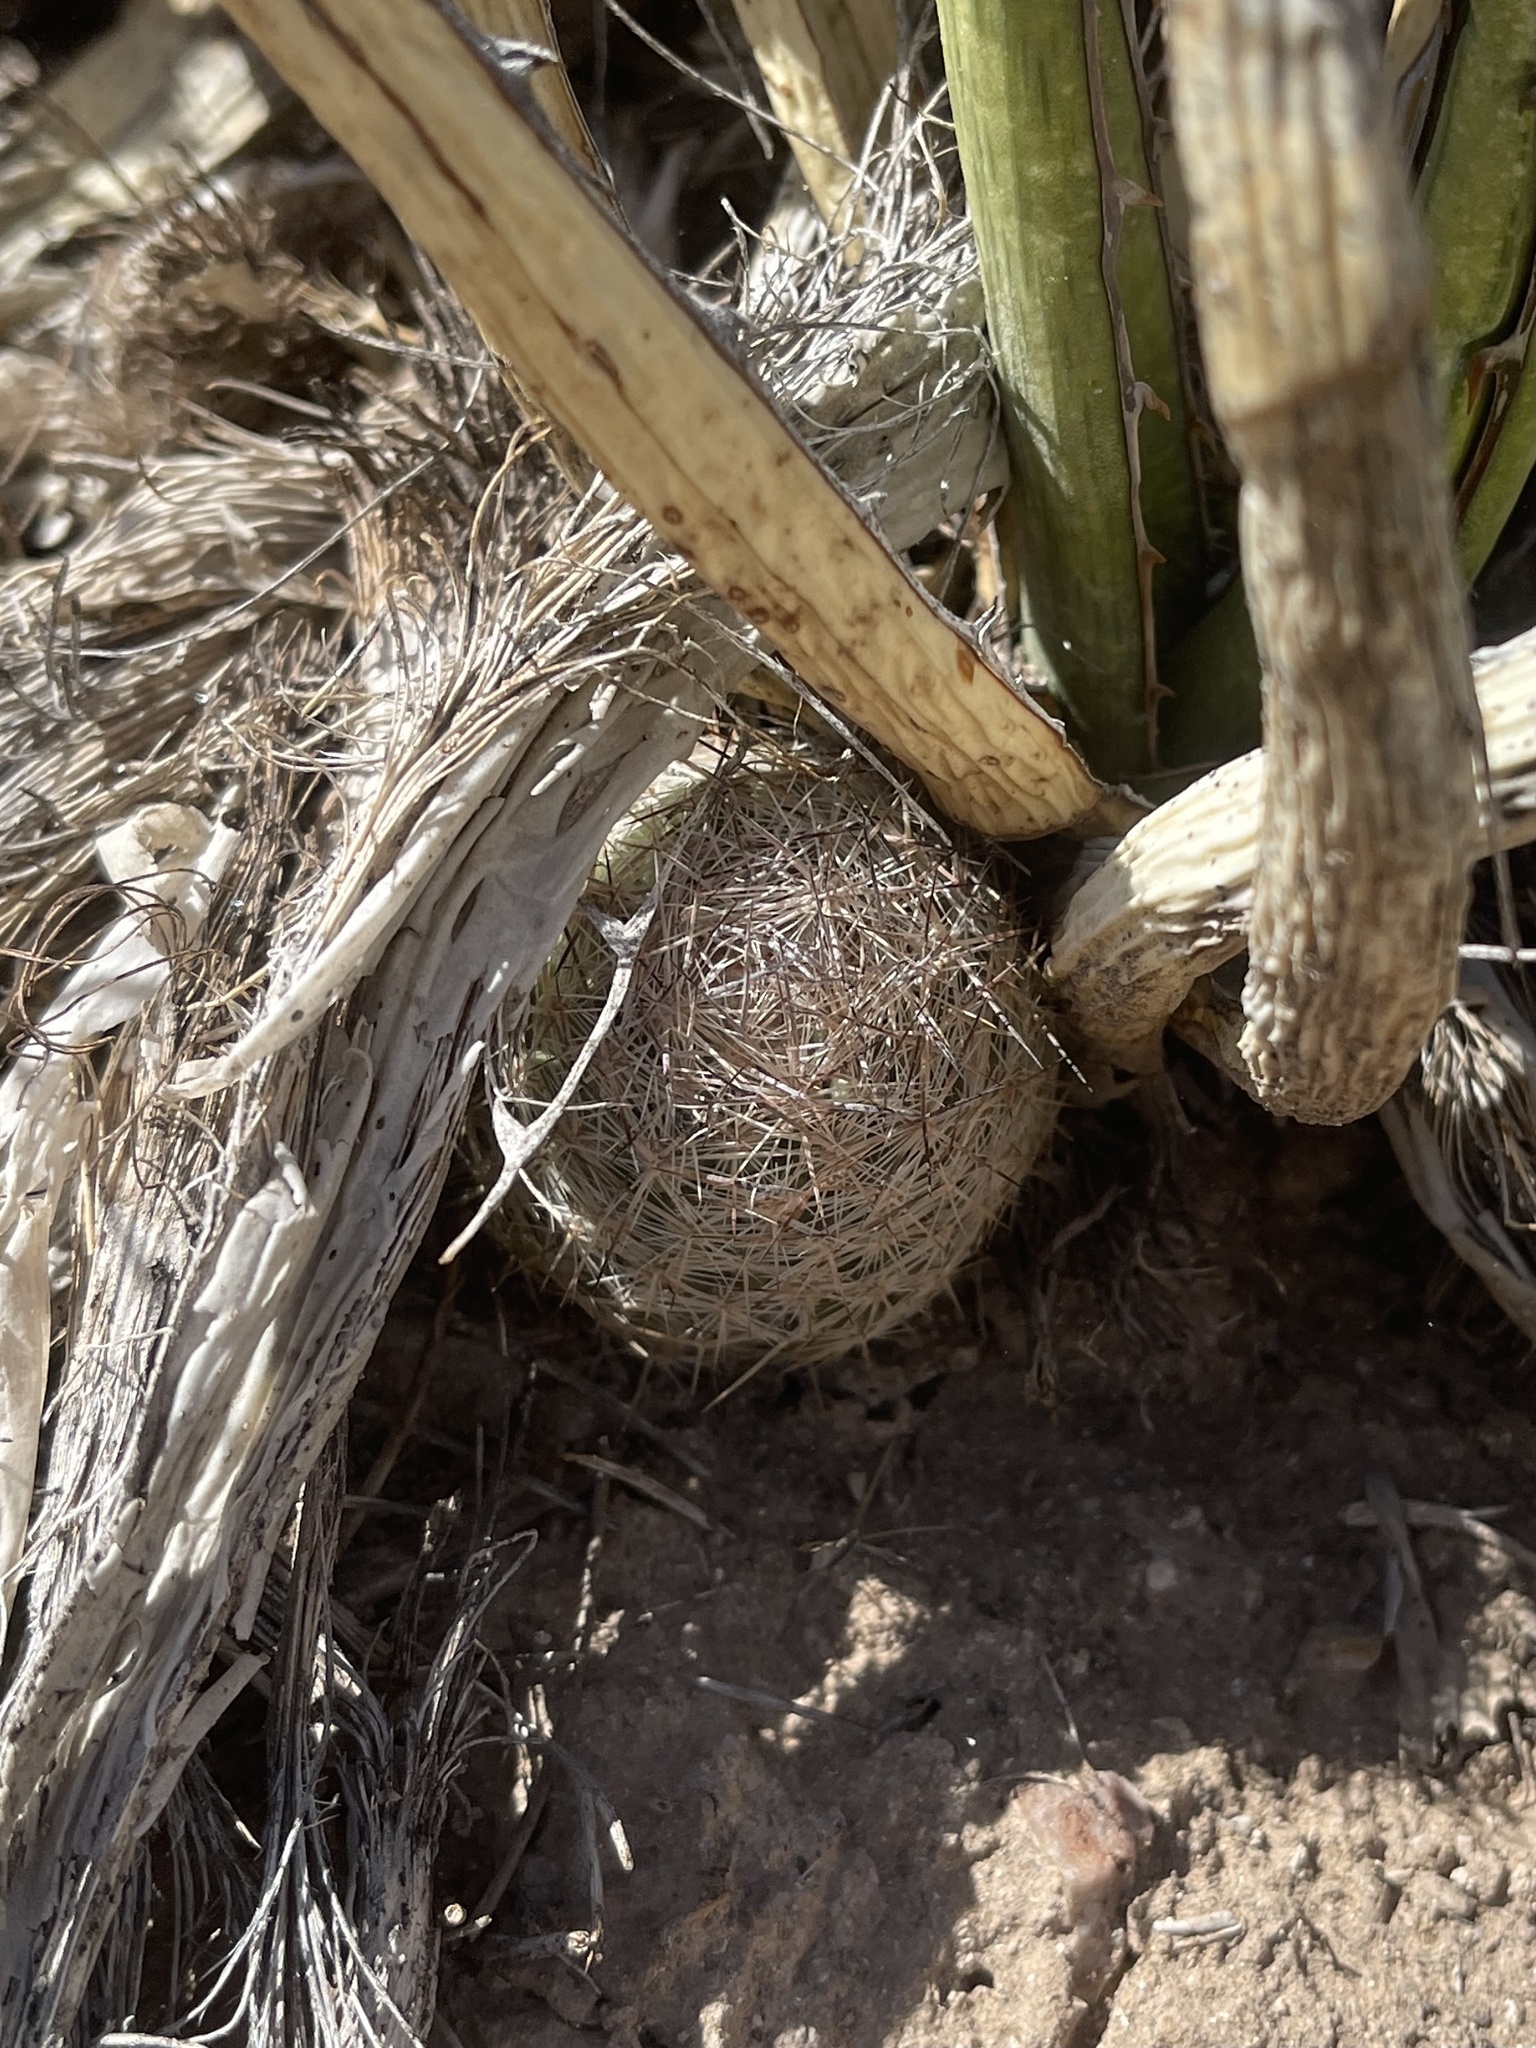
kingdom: Plantae
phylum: Tracheophyta
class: Magnoliopsida
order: Caryophyllales
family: Cactaceae
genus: Pelecyphora
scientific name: Pelecyphora vivipara
